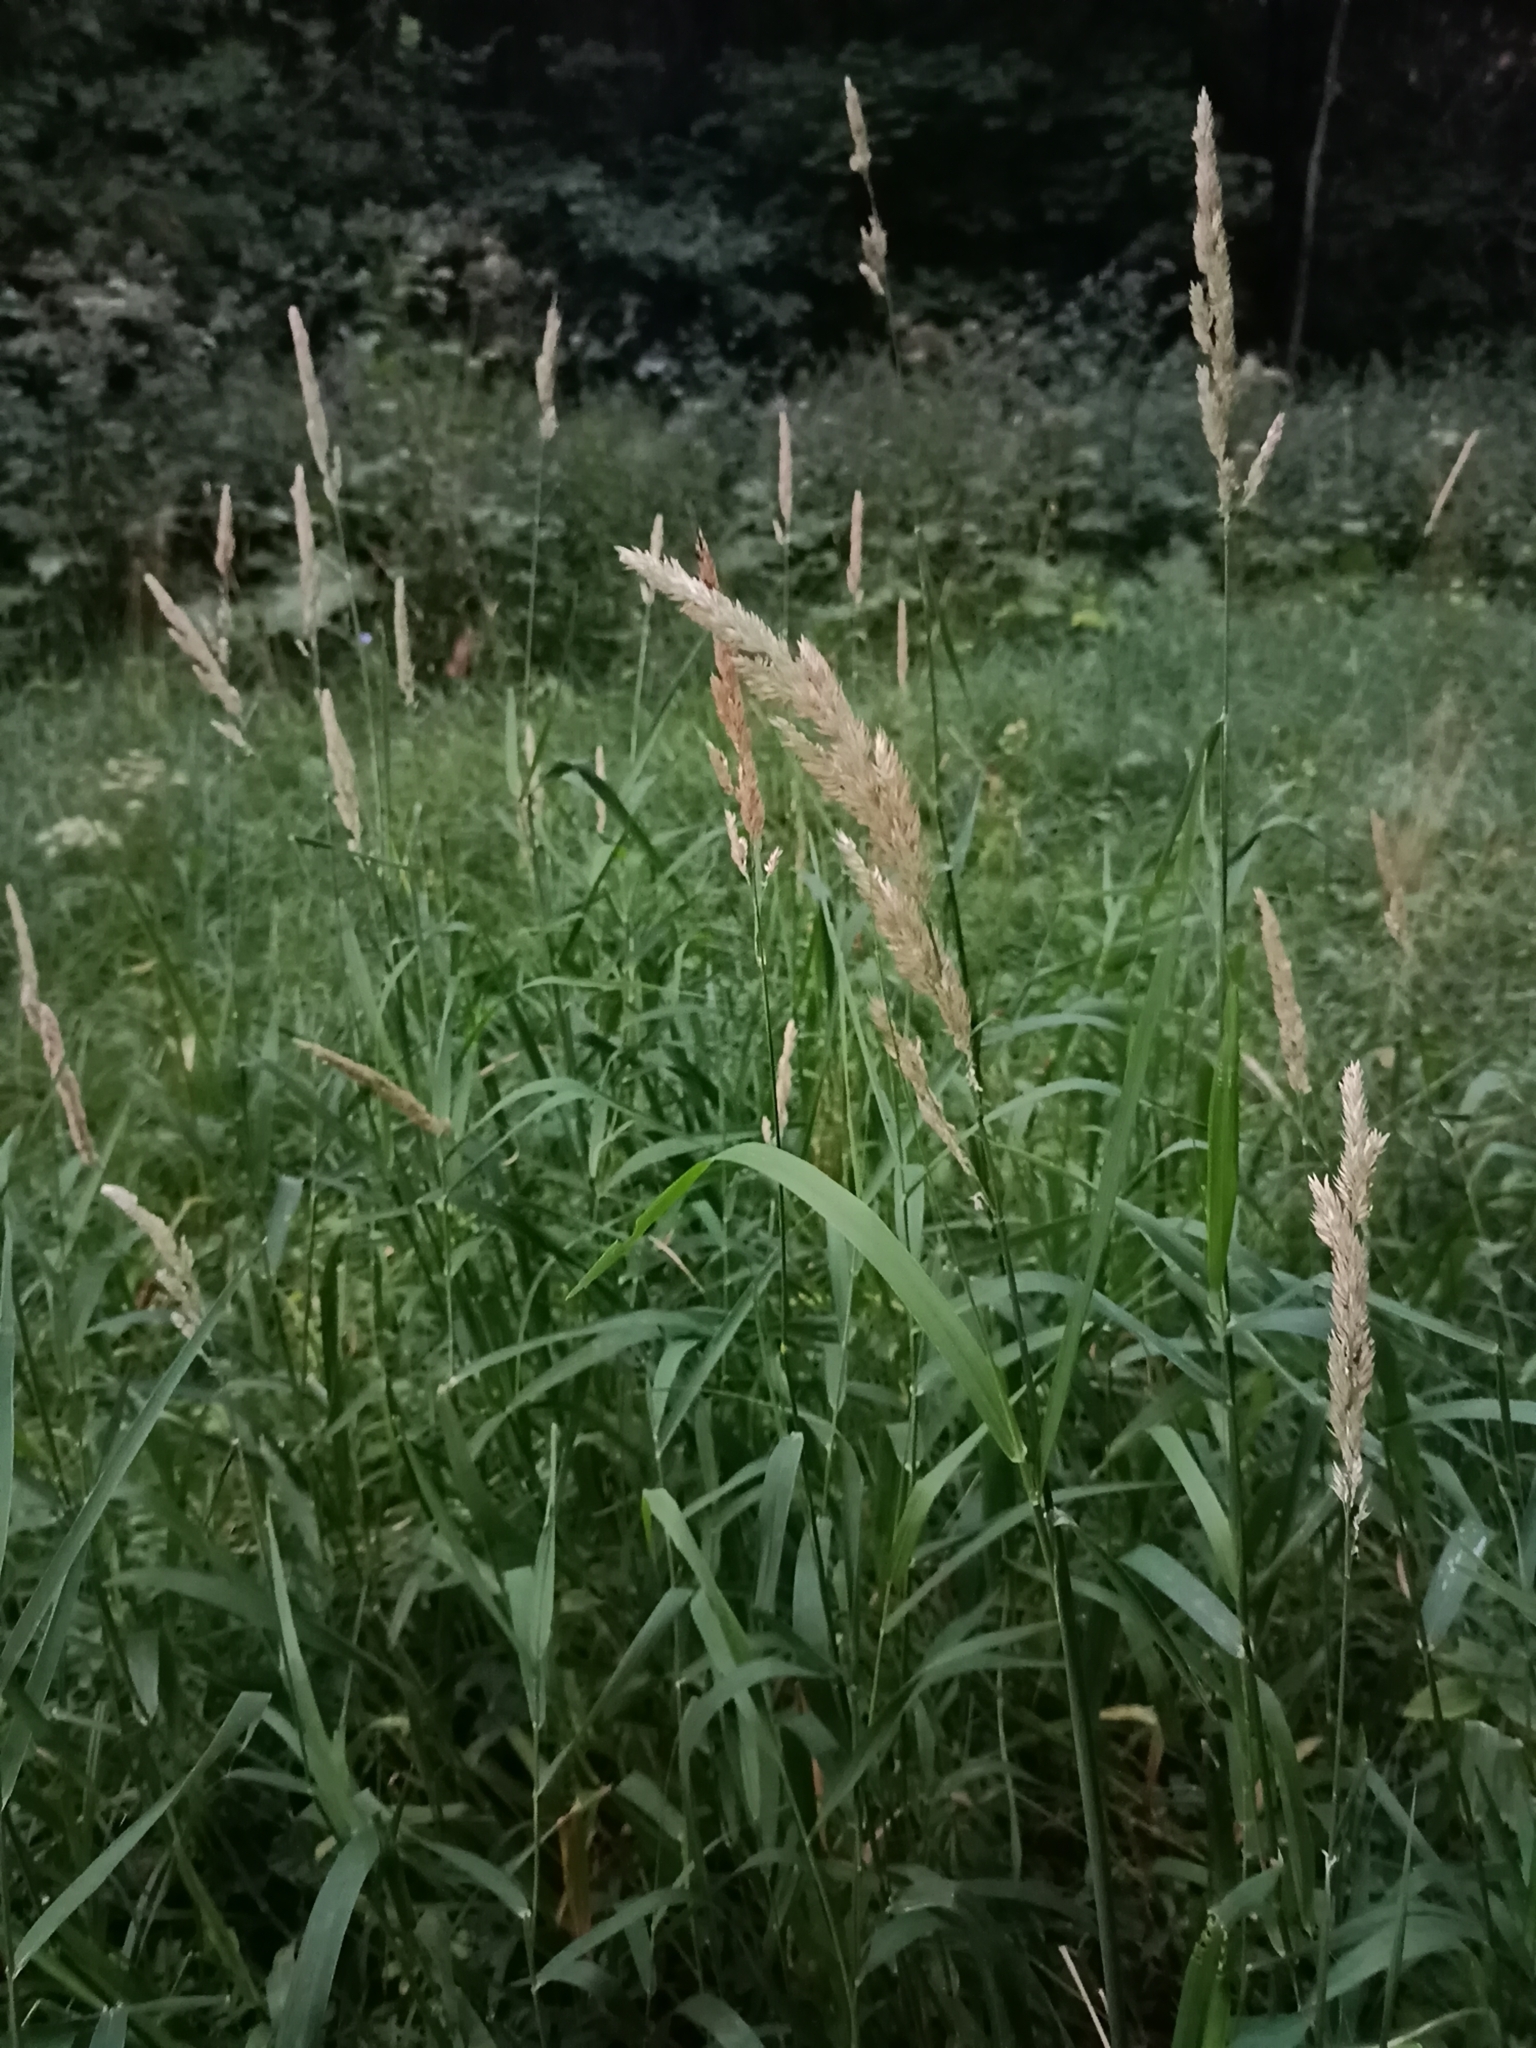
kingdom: Plantae
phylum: Tracheophyta
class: Liliopsida
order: Poales
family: Poaceae
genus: Phalaris
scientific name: Phalaris arundinacea
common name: Reed canary-grass
